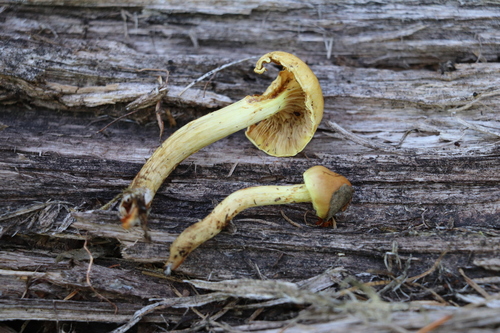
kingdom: Fungi
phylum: Basidiomycota
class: Agaricomycetes
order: Agaricales
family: Strophariaceae
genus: Hypholoma
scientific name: Hypholoma capnoides
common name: Conifer tuft
